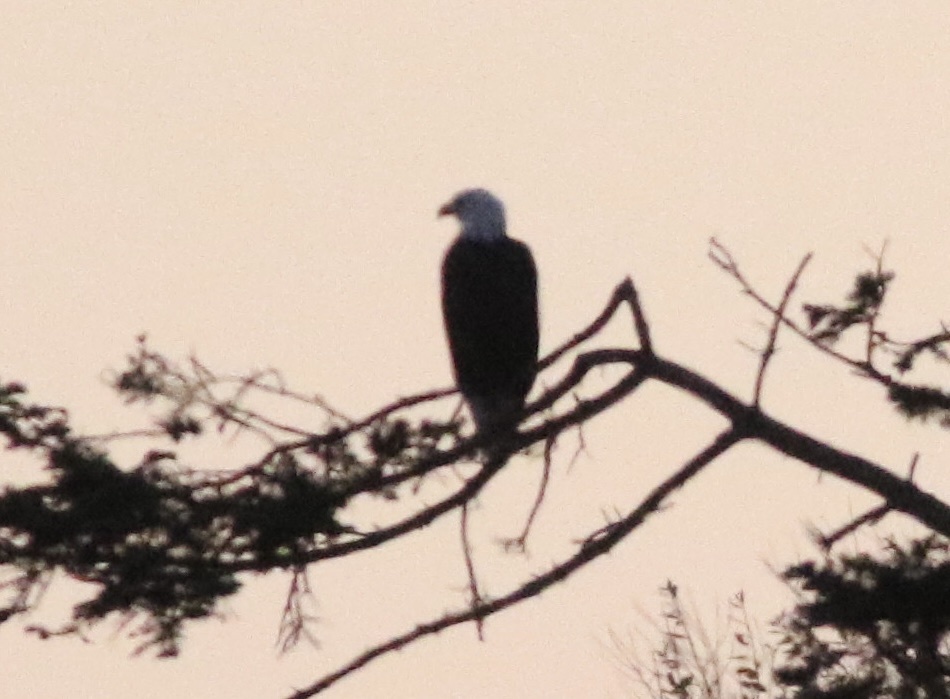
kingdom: Animalia
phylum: Chordata
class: Aves
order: Accipitriformes
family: Accipitridae
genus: Haliaeetus
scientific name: Haliaeetus leucocephalus
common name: Bald eagle
